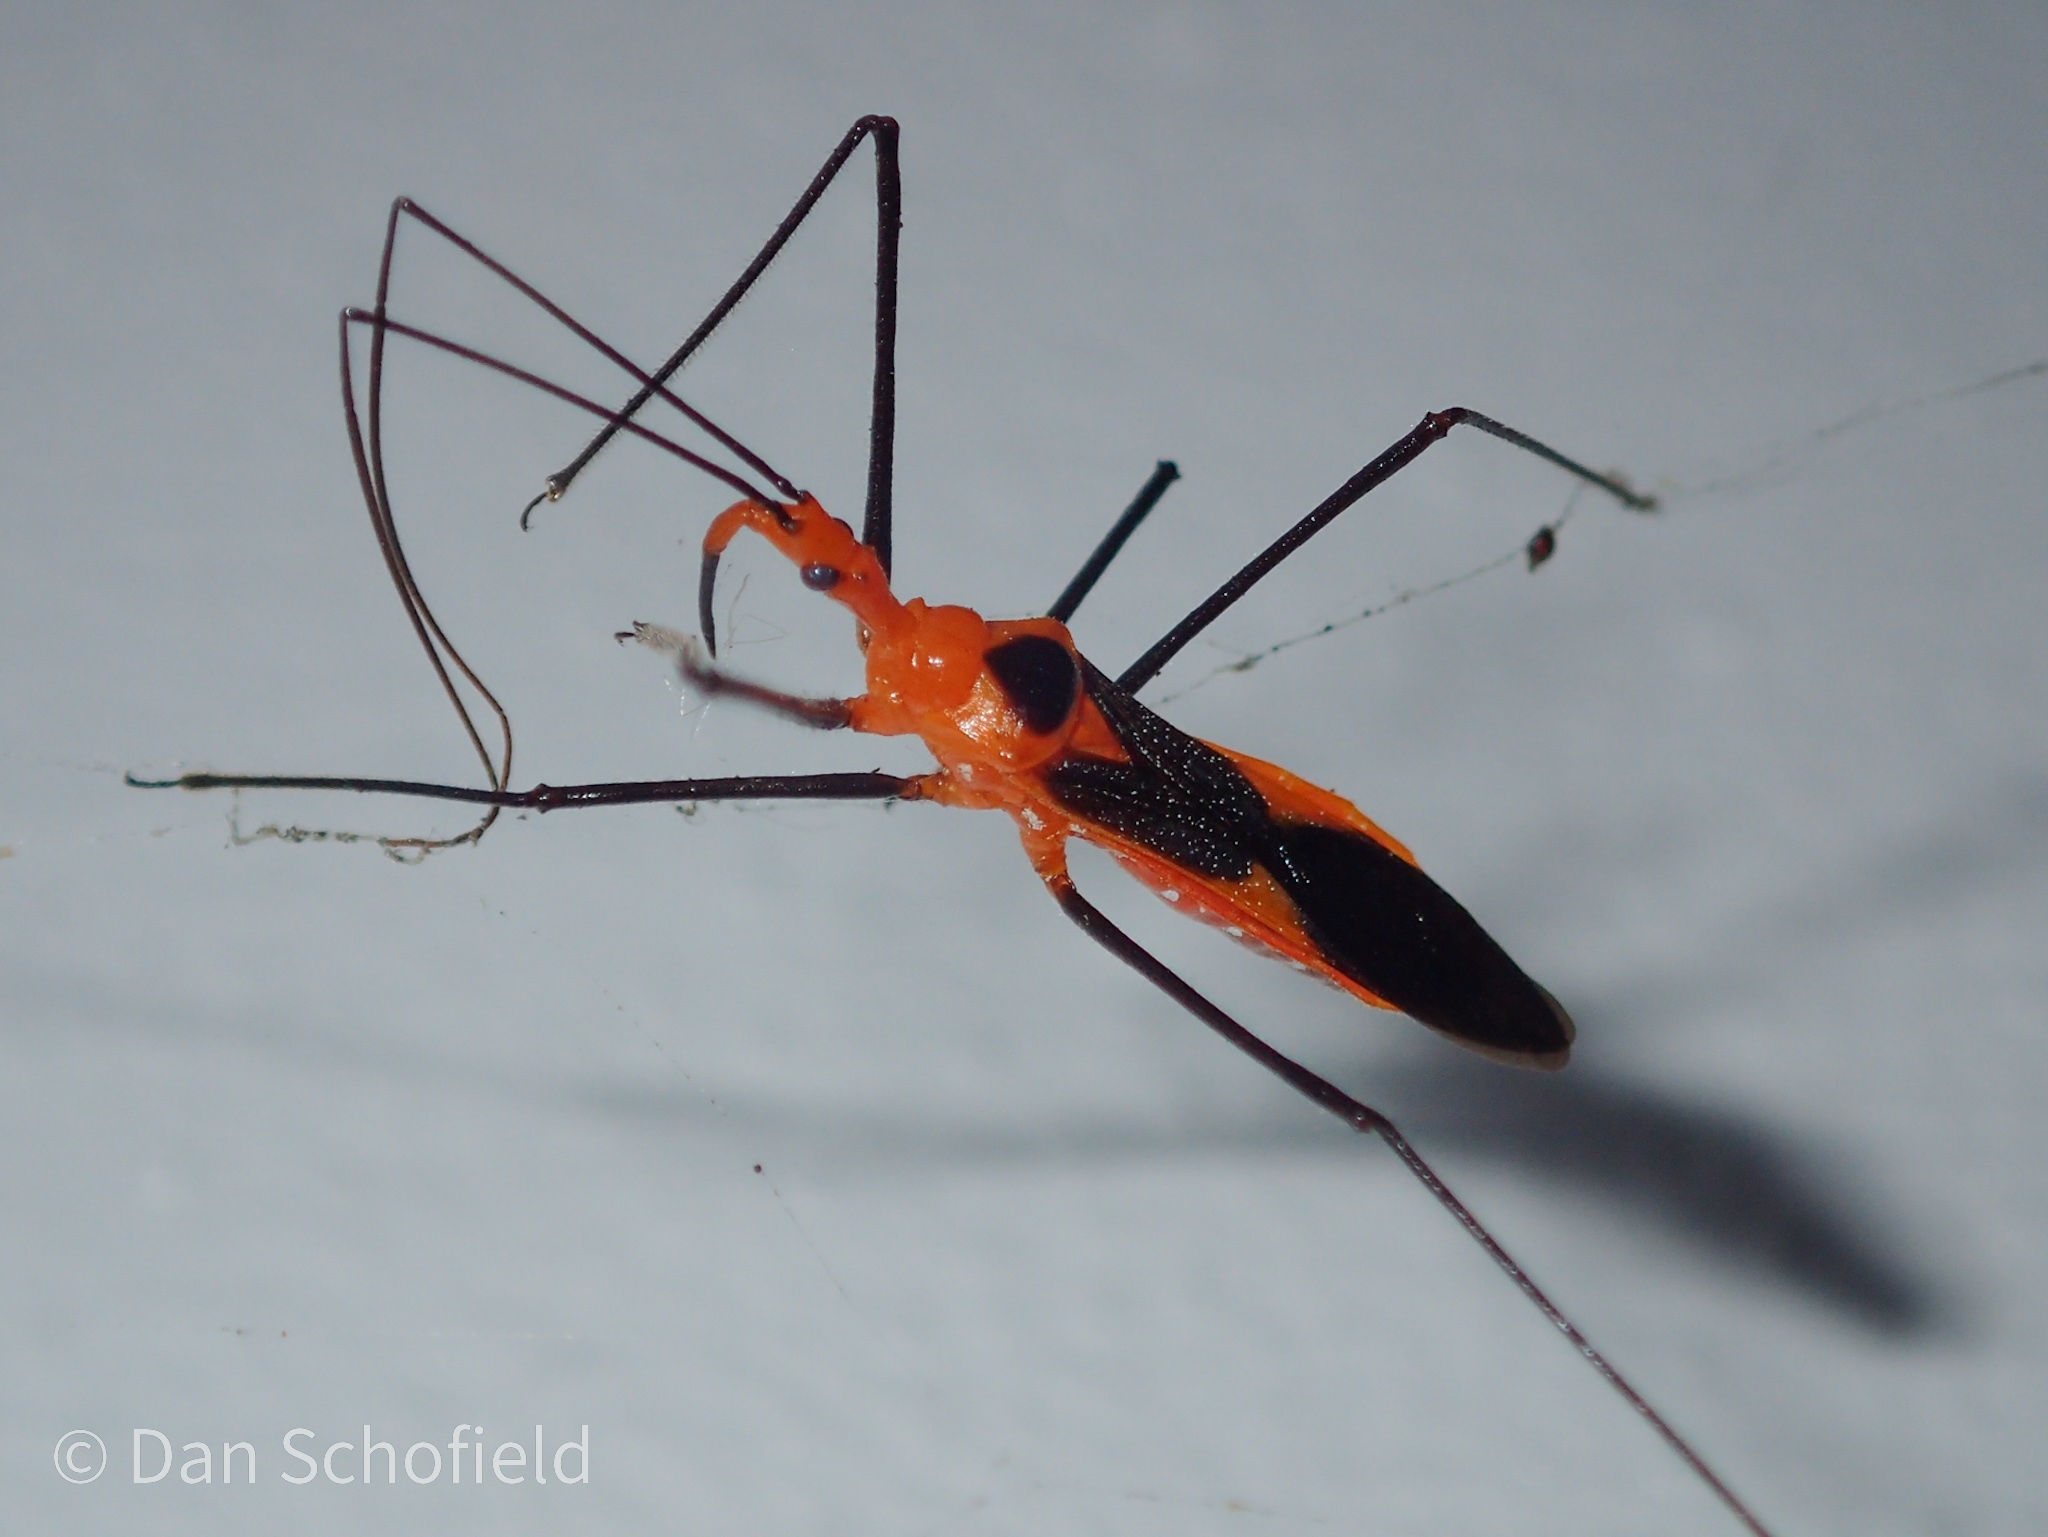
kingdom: Animalia
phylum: Arthropoda
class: Insecta
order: Hemiptera
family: Reduviidae
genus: Zelus
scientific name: Zelus longipes
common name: Milkweed assassin bug
